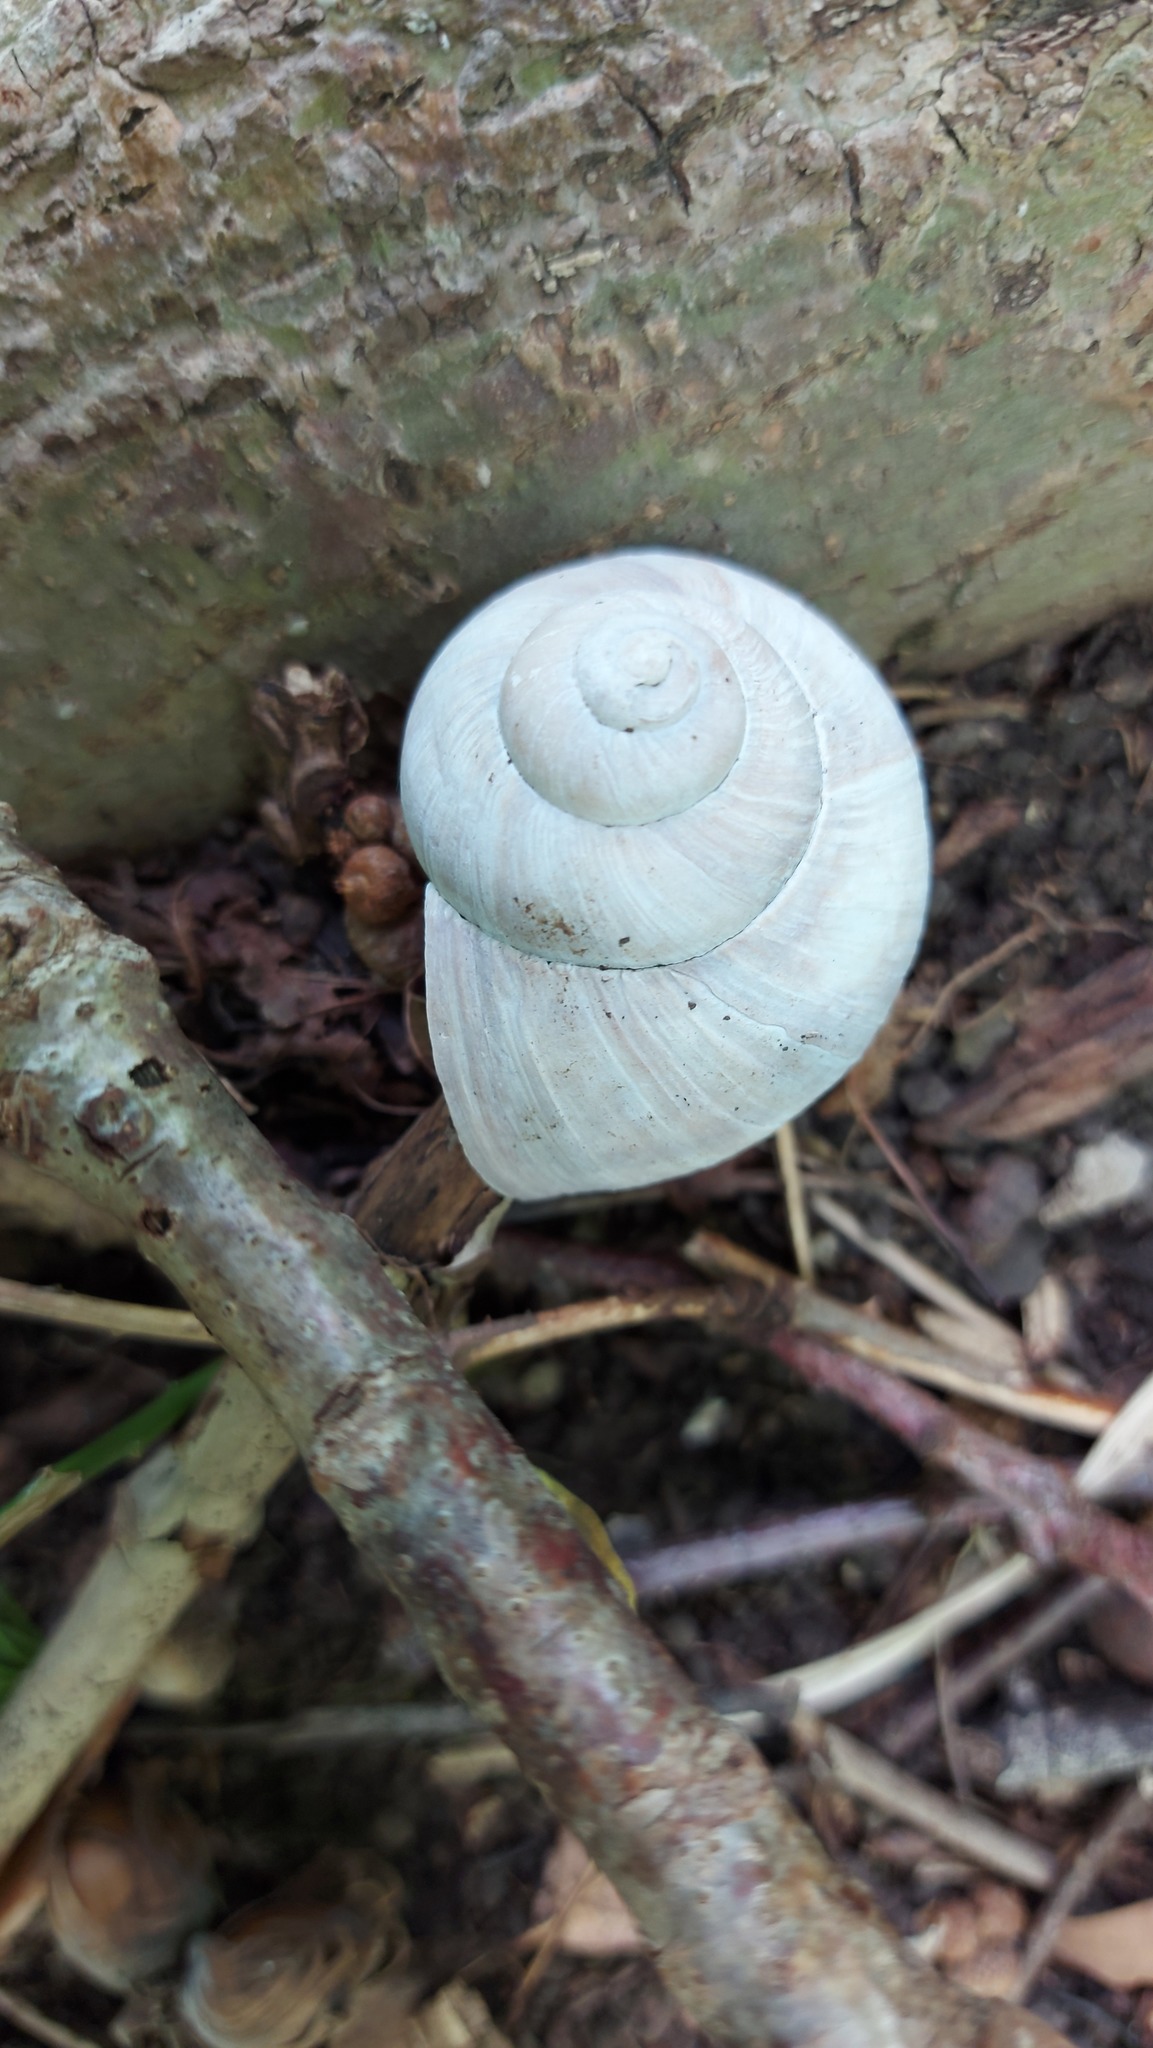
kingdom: Animalia
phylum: Mollusca
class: Gastropoda
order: Stylommatophora
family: Helicidae
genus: Helix
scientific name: Helix pomatia
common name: Roman snail
